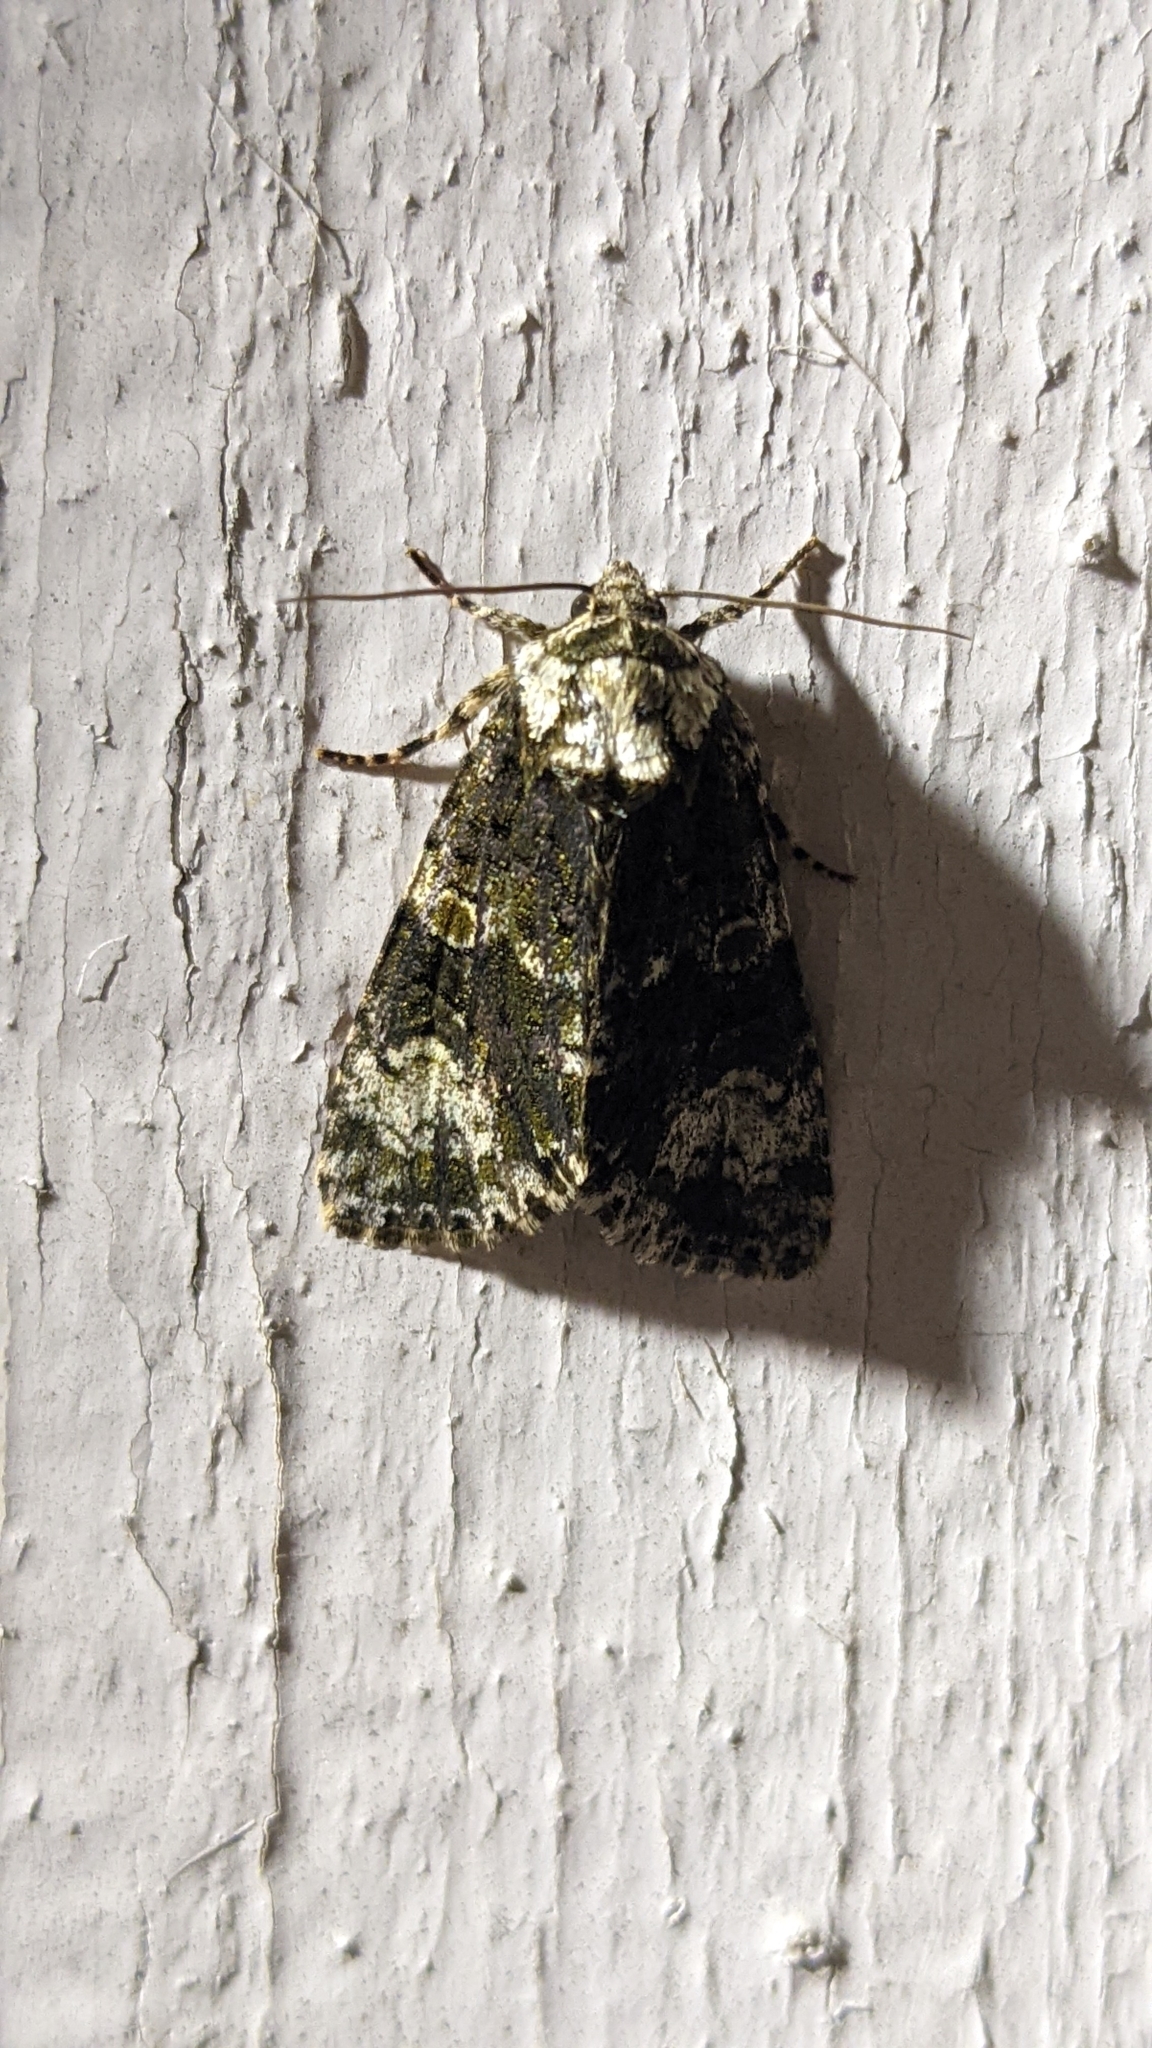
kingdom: Animalia
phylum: Arthropoda
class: Insecta
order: Lepidoptera
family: Noctuidae
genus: Craniophora
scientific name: Craniophora ligustri
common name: Coronet
